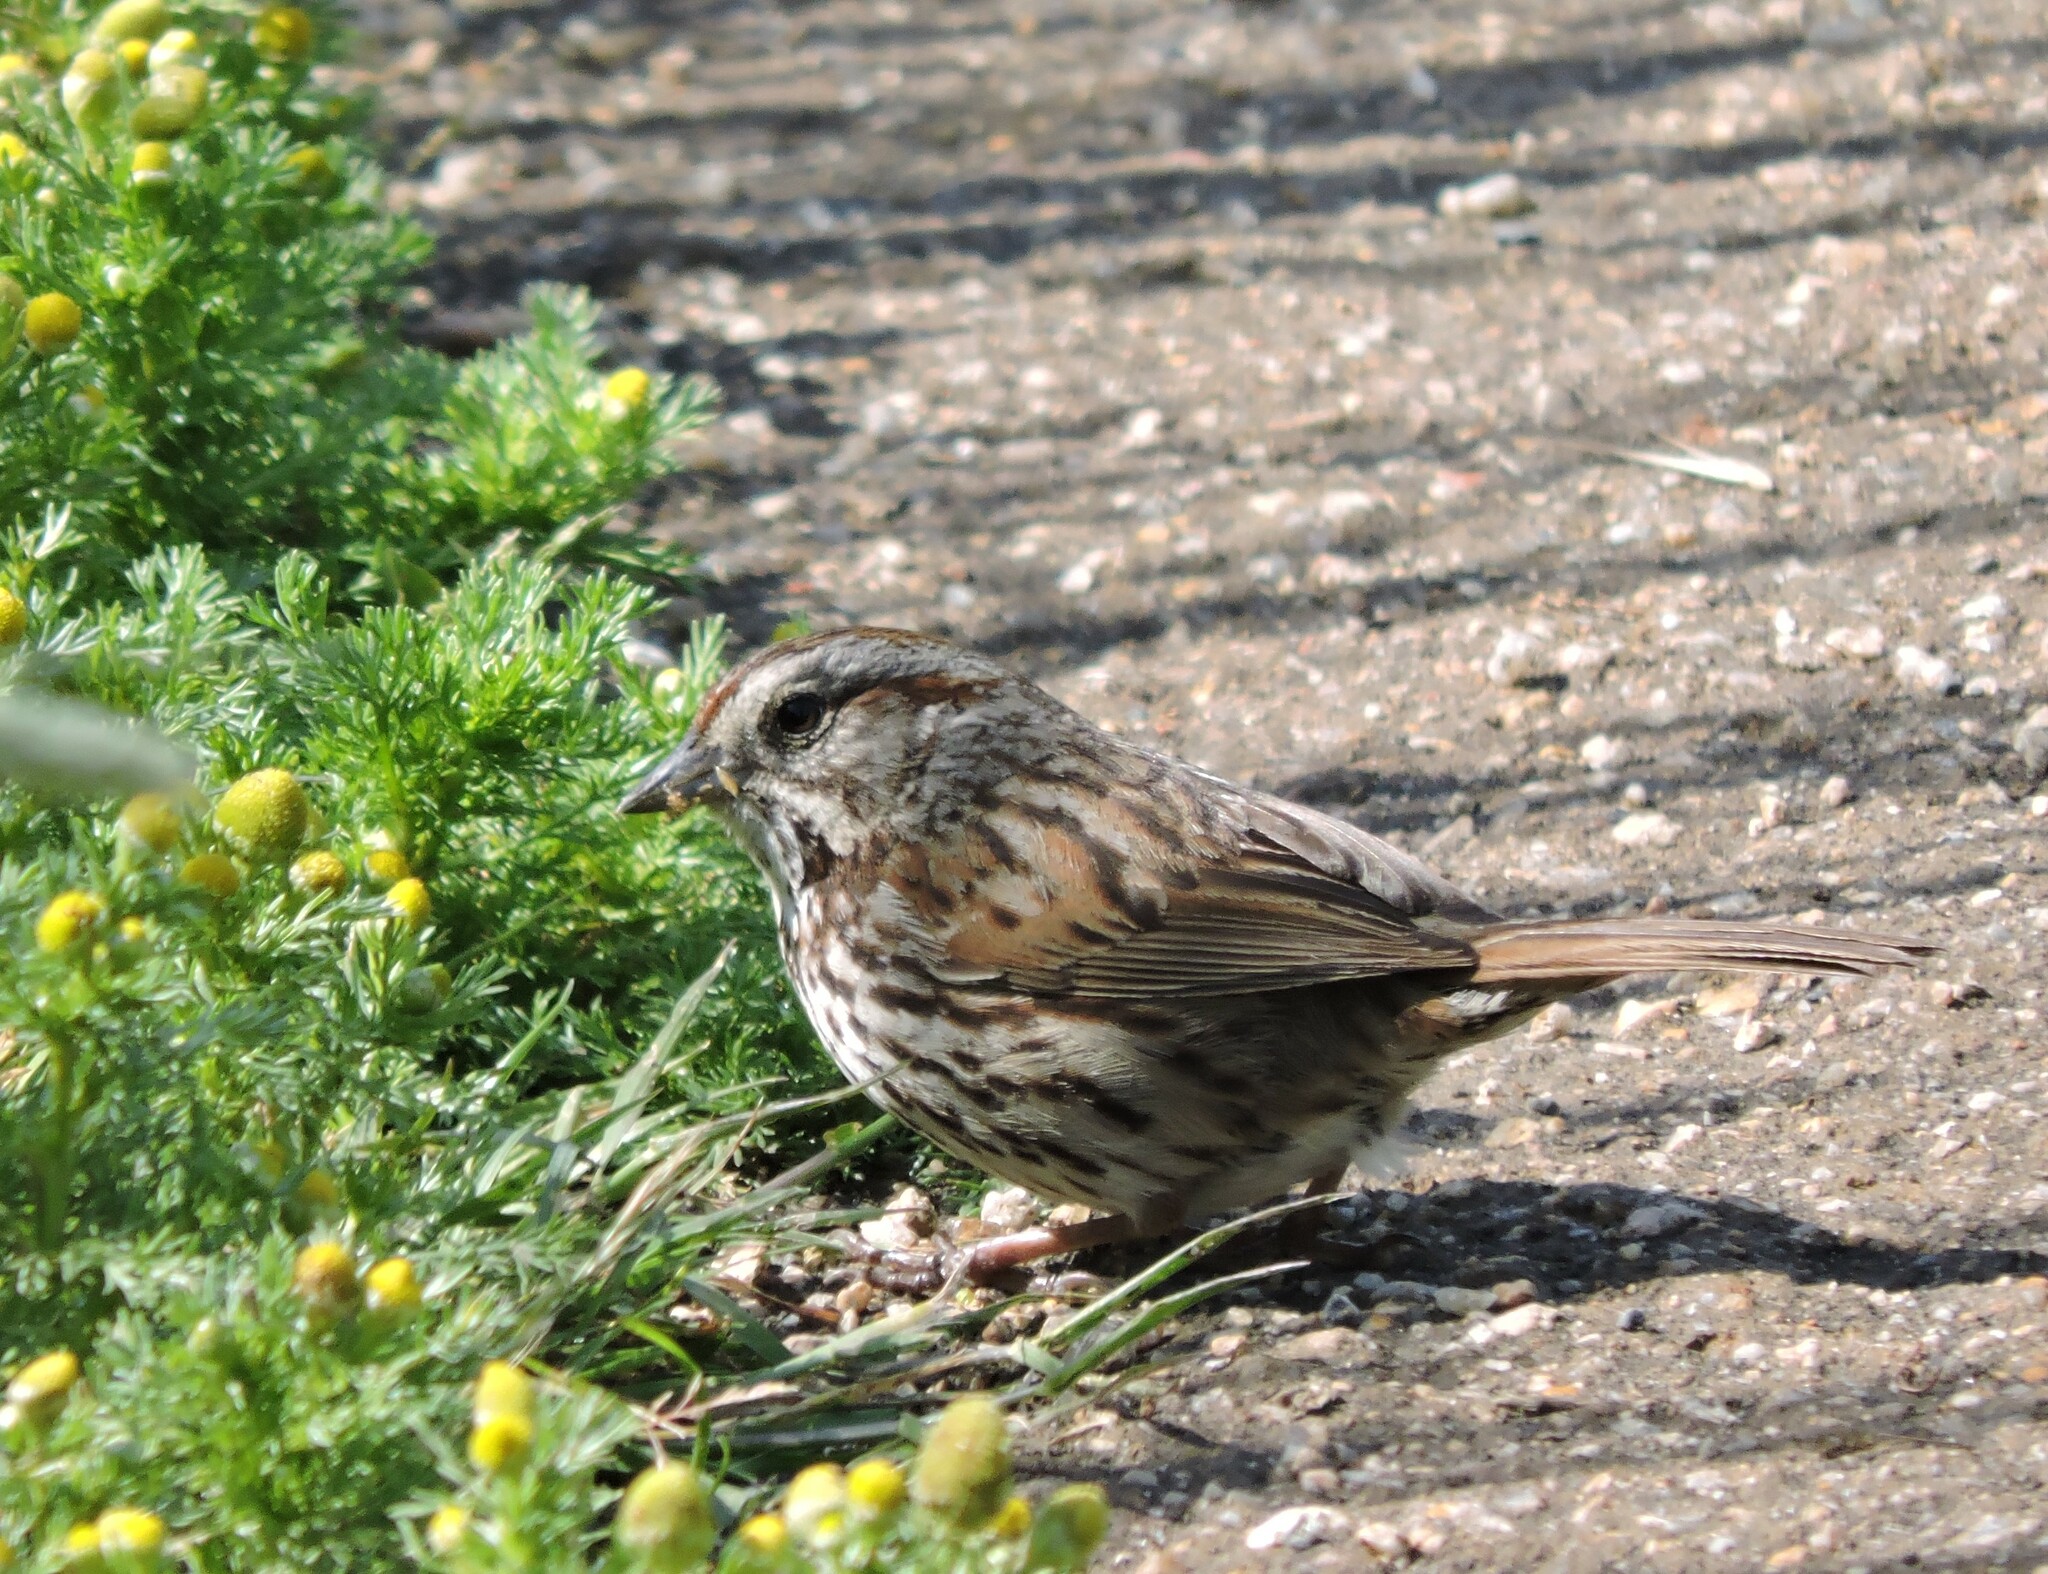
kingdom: Animalia
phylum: Chordata
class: Aves
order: Passeriformes
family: Passerellidae
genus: Melospiza
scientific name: Melospiza melodia
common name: Song sparrow
